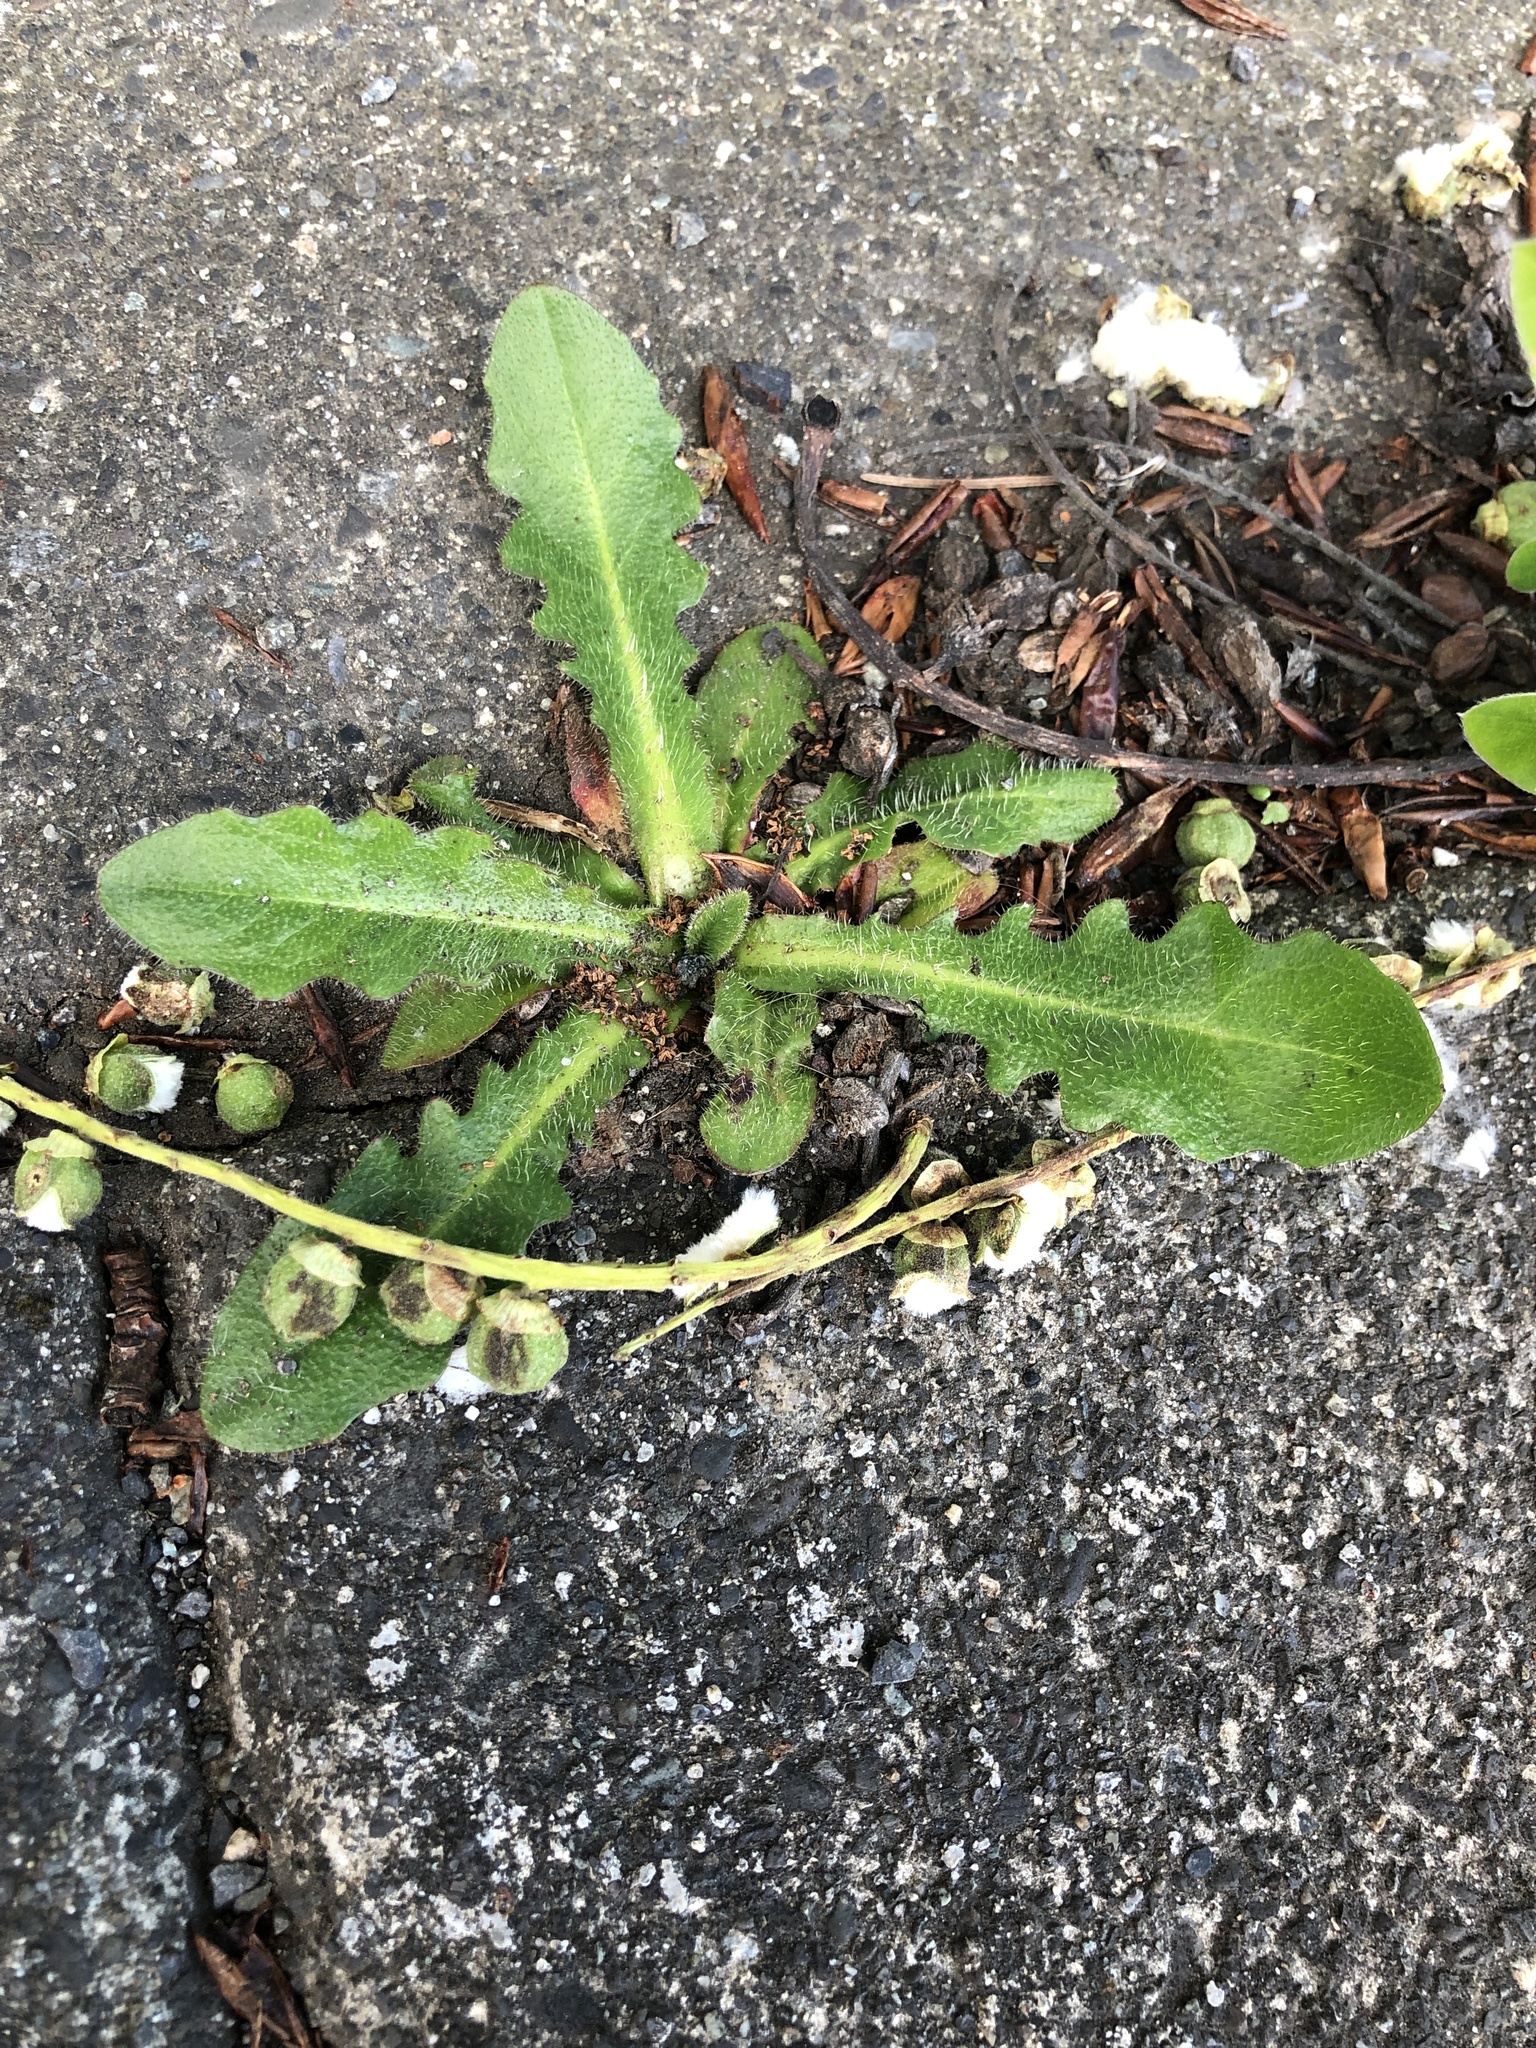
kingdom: Plantae
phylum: Tracheophyta
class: Magnoliopsida
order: Asterales
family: Asteraceae
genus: Hypochaeris
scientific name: Hypochaeris radicata
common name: Flatweed
